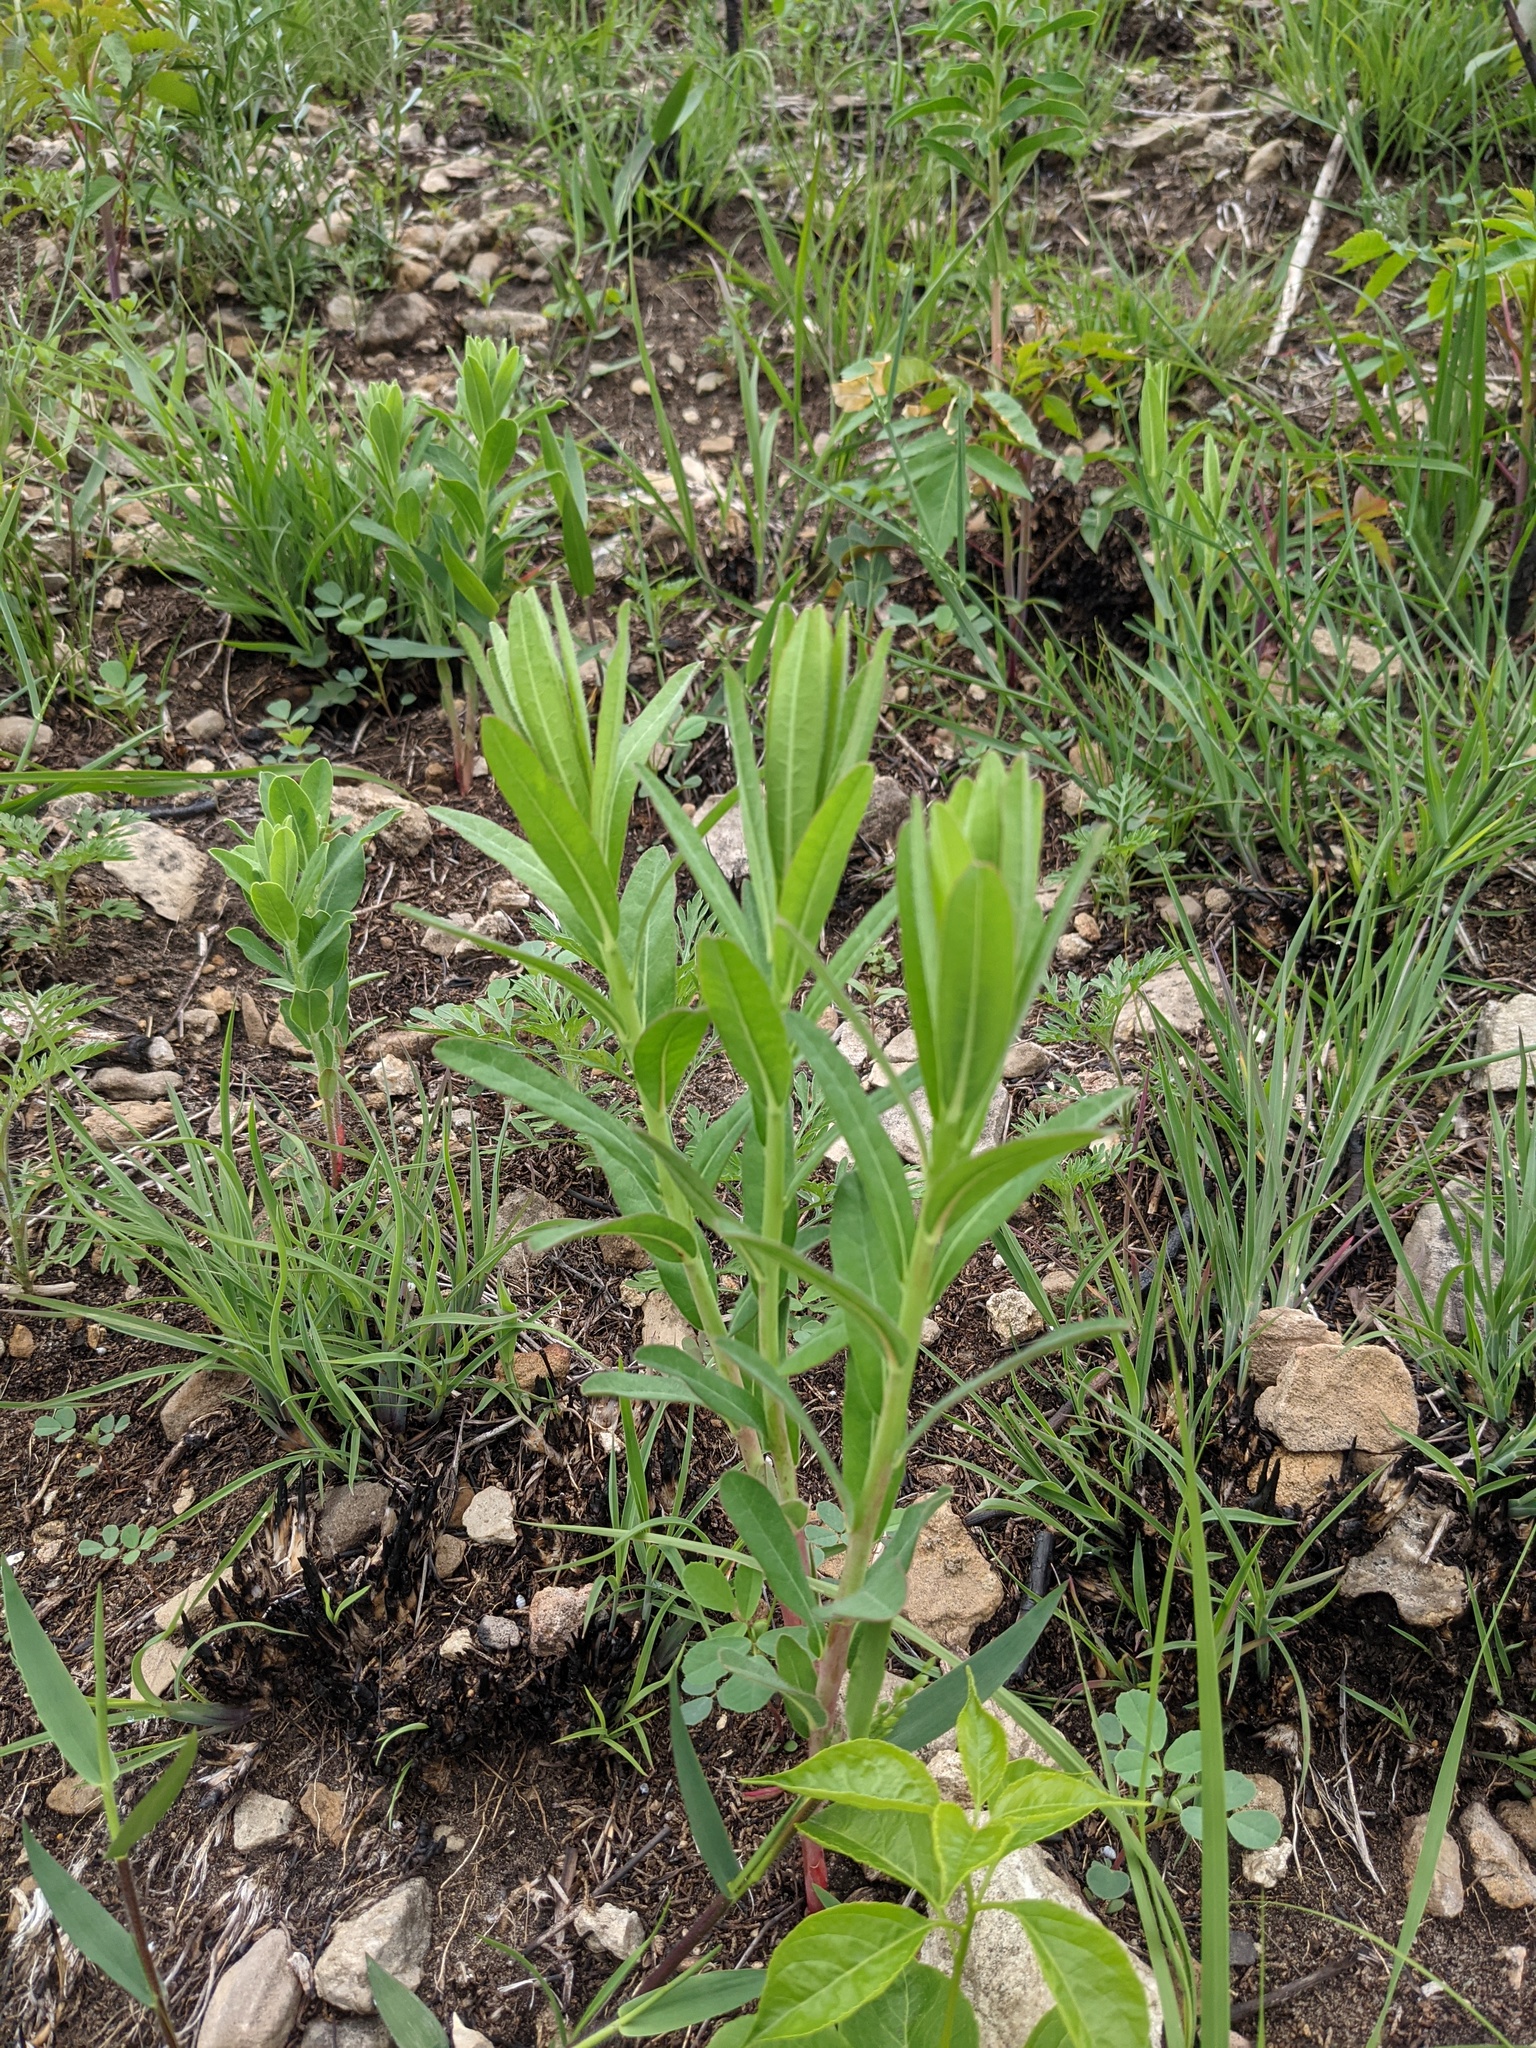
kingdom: Plantae
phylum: Tracheophyta
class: Magnoliopsida
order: Malpighiales
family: Euphorbiaceae
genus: Euphorbia
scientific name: Euphorbia corollata
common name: Flowering spurge
